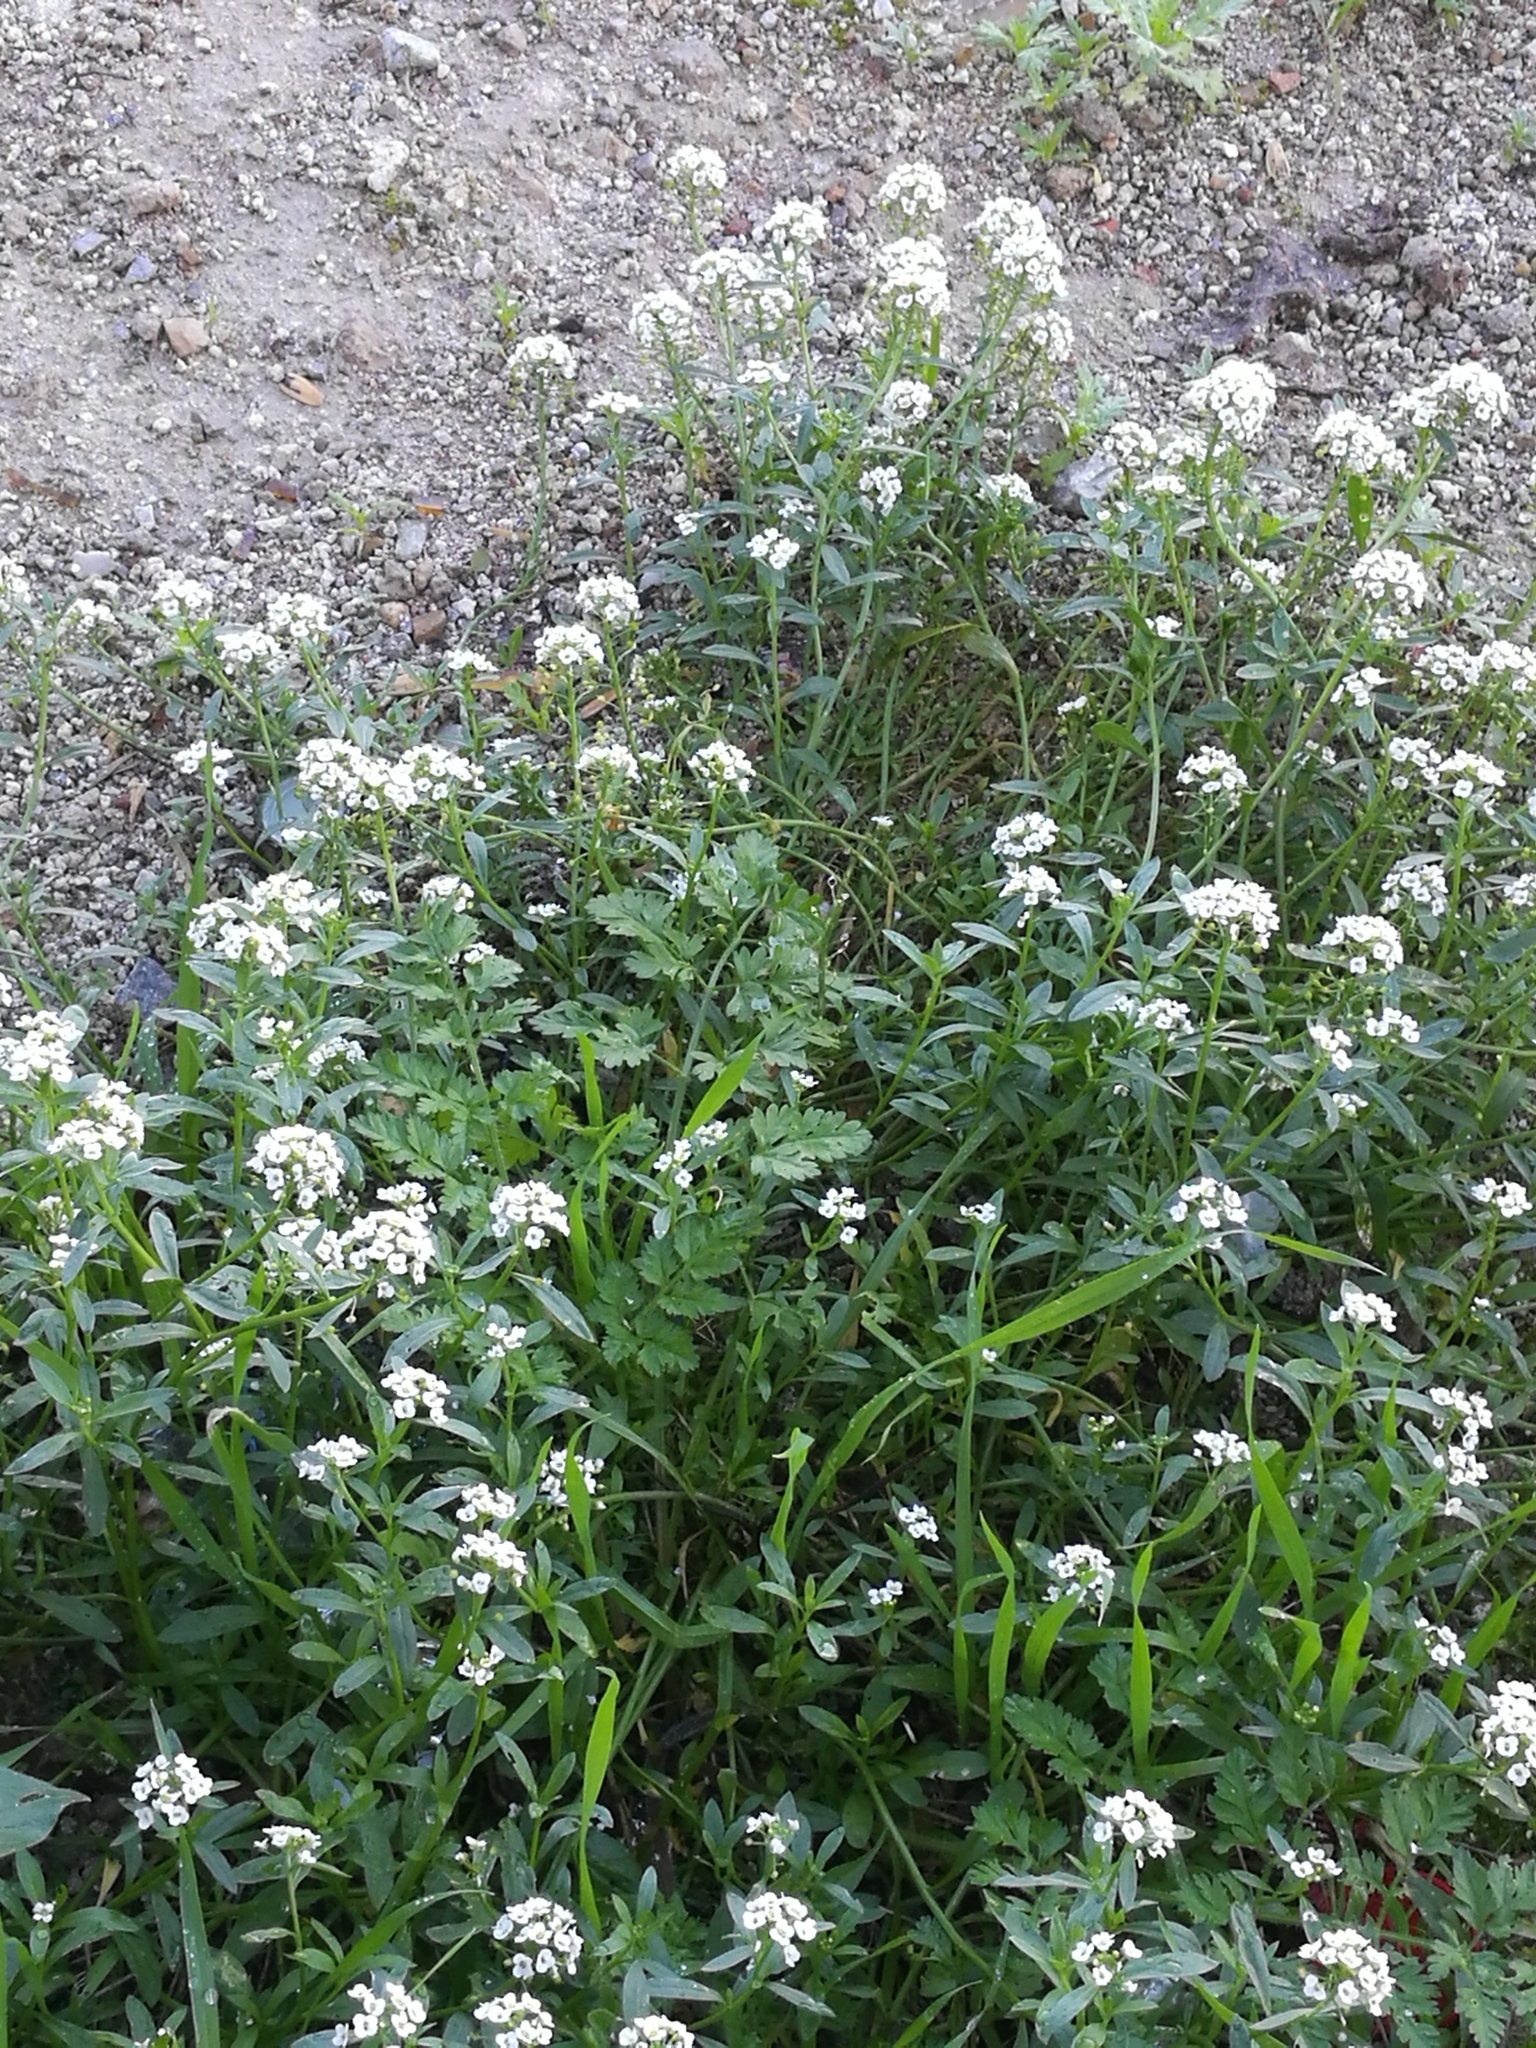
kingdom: Plantae
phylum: Tracheophyta
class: Magnoliopsida
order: Brassicales
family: Brassicaceae
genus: Lobularia
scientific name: Lobularia maritima
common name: Sweet alison
